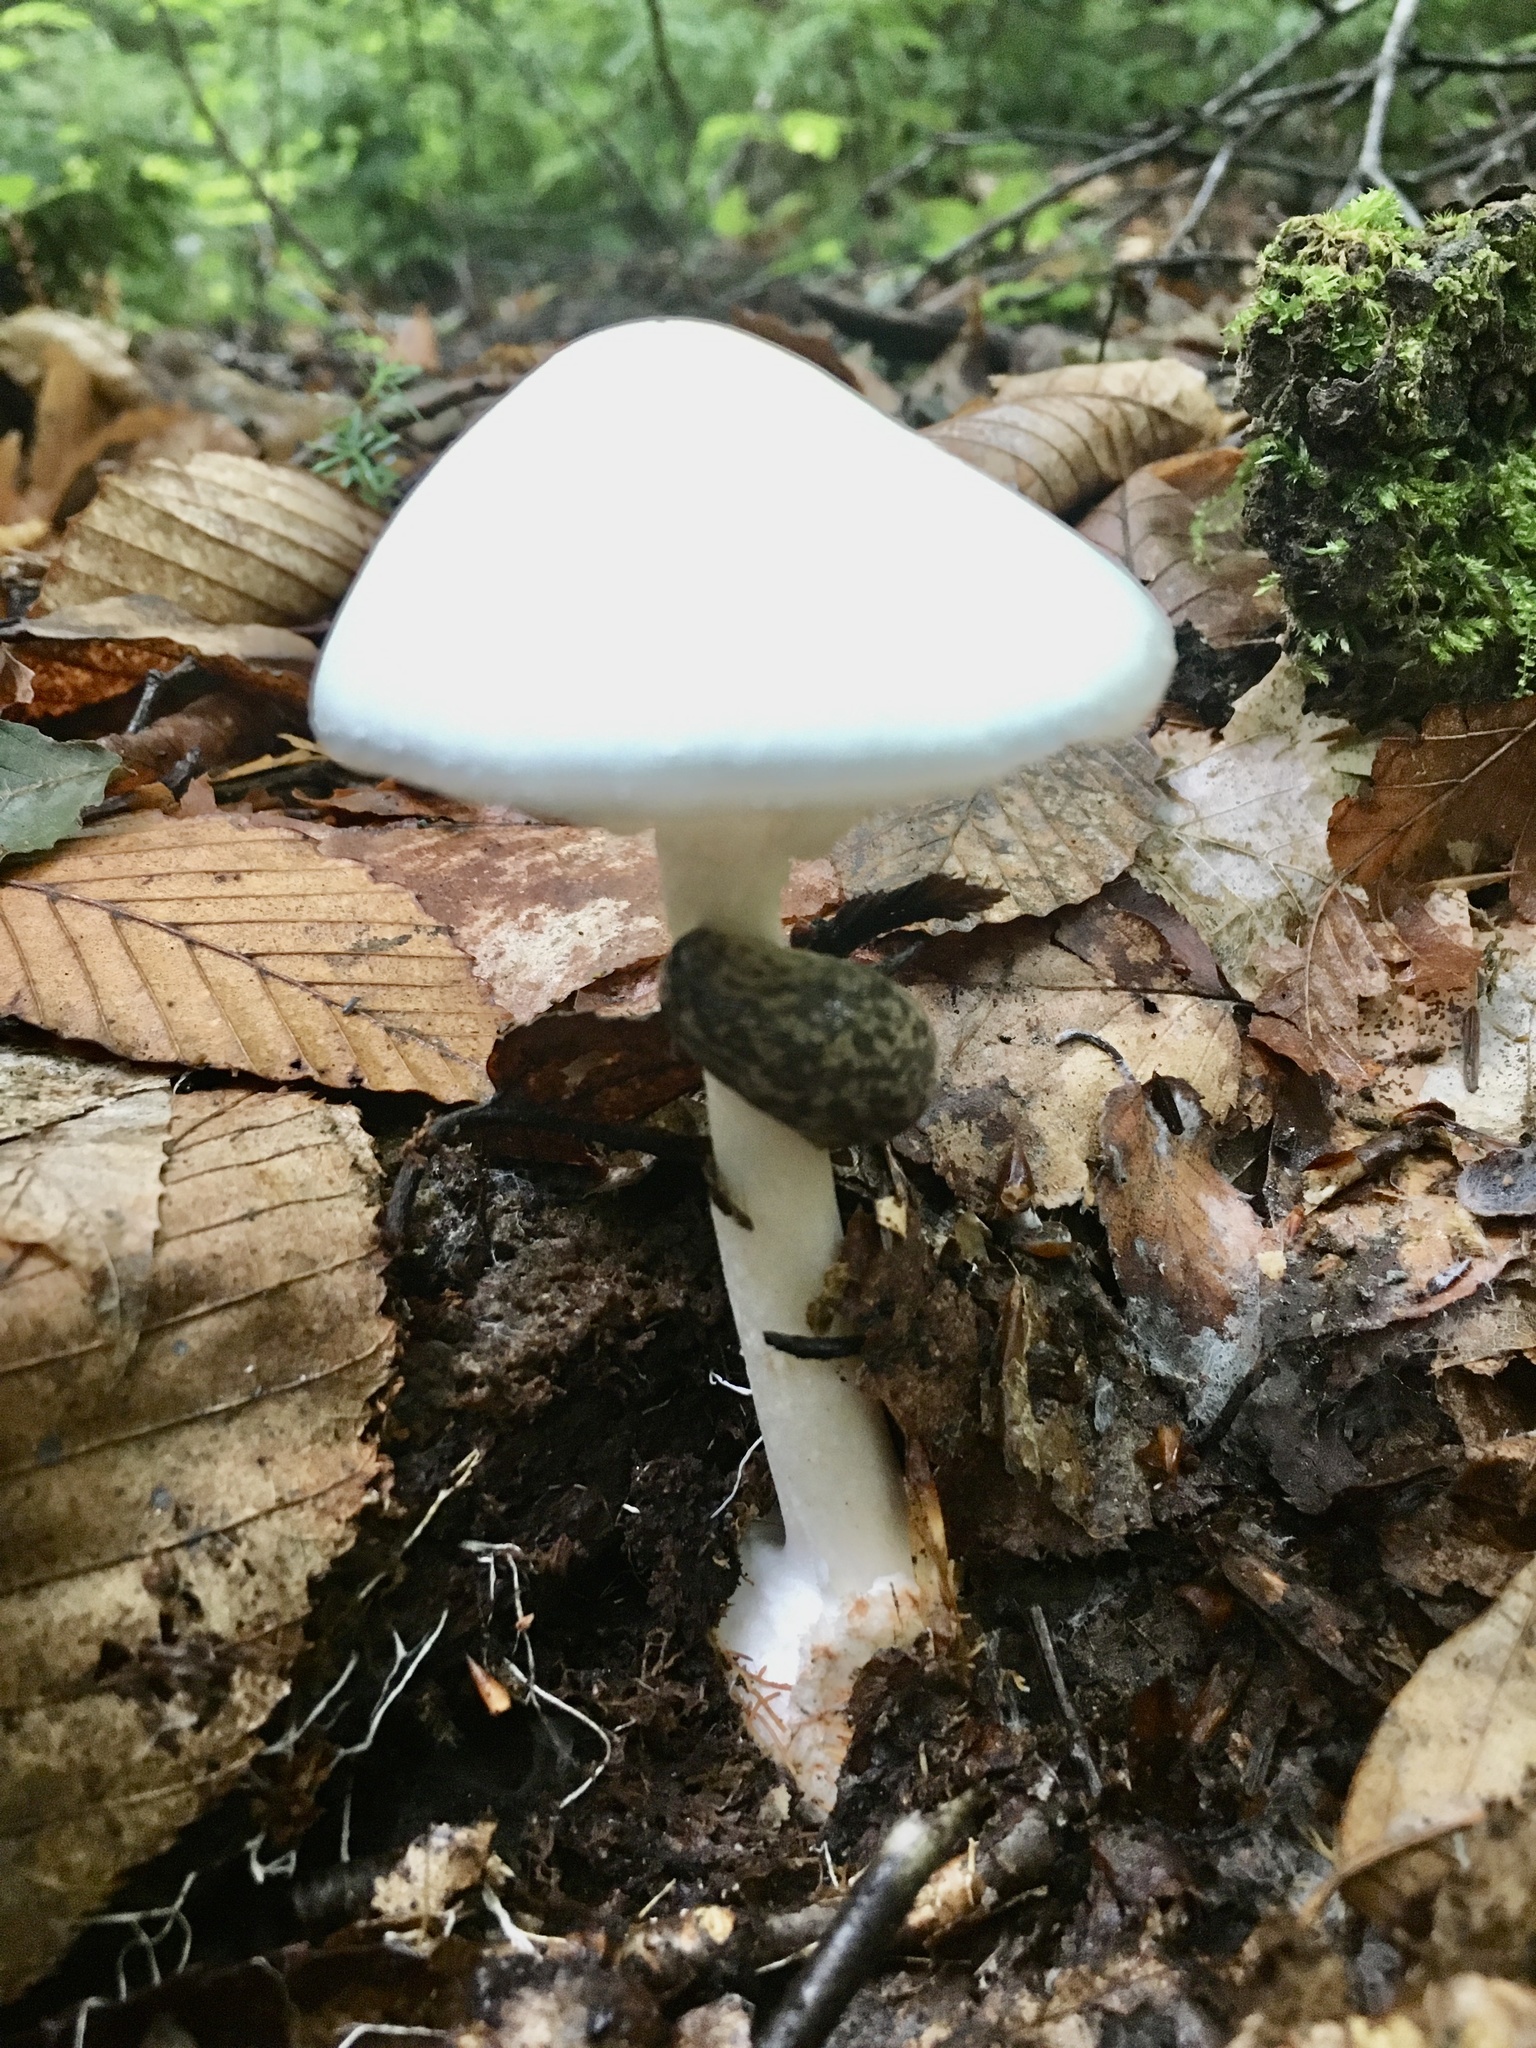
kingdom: Animalia
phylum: Mollusca
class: Gastropoda
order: Stylommatophora
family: Philomycidae
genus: Philomycus
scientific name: Philomycus flexuolaris
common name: Winding mantleslug
